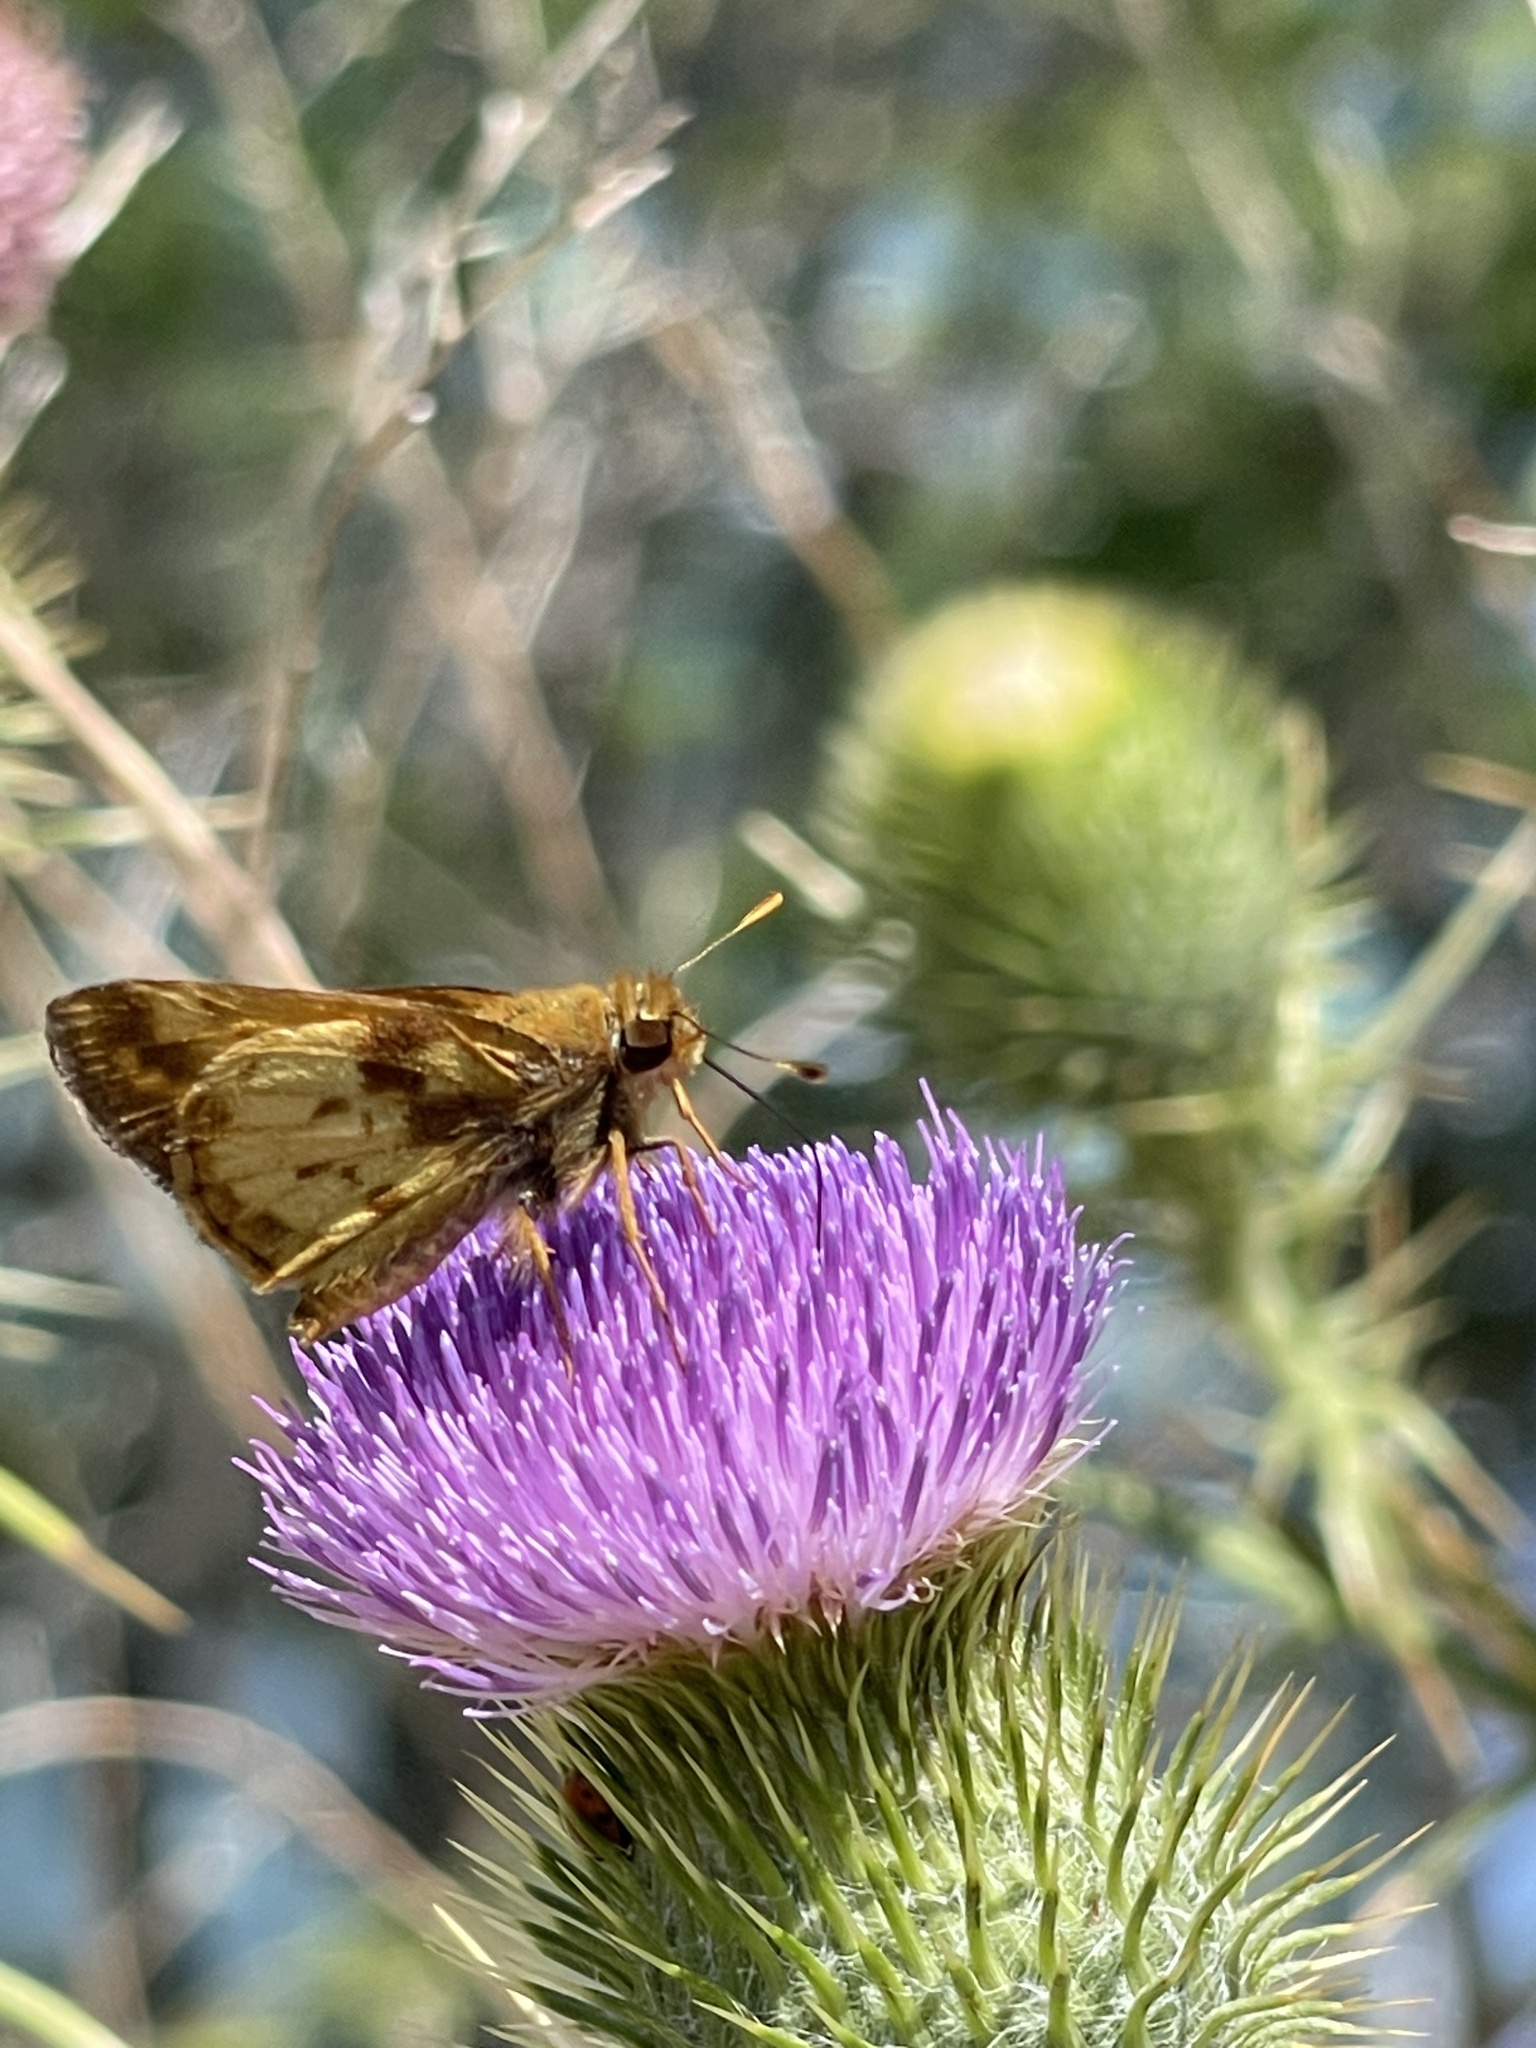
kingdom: Animalia
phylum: Arthropoda
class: Insecta
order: Lepidoptera
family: Hesperiidae
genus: Lon
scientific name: Lon zabulon
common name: Zabulon skipper
